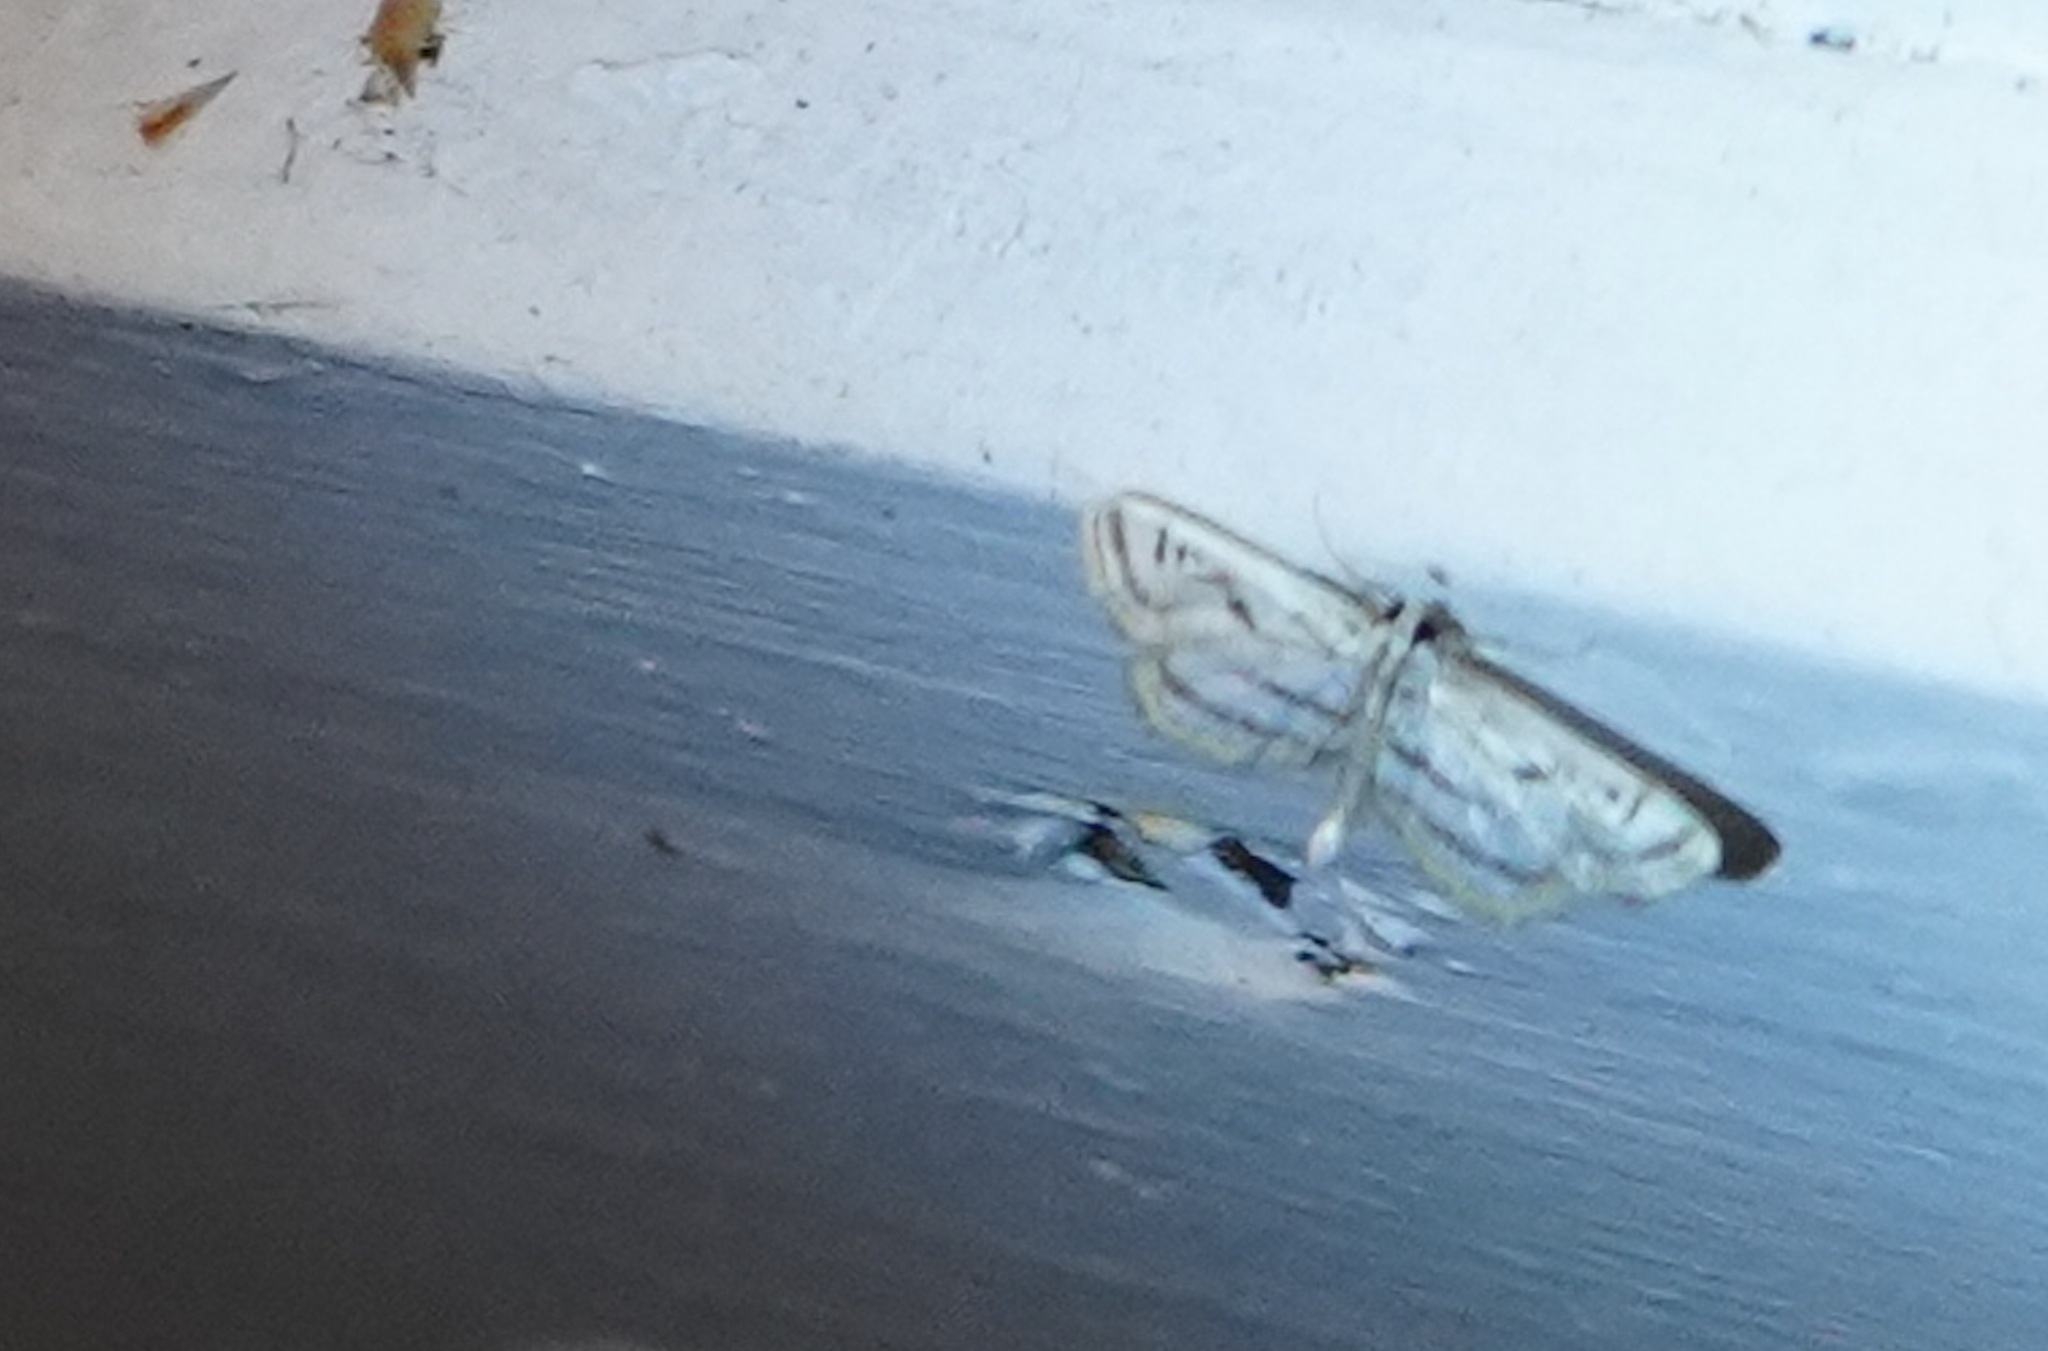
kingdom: Animalia
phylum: Arthropoda
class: Insecta
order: Lepidoptera
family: Crambidae
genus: Parapoynx
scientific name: Parapoynx badiusalis
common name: Chestnut-marked pondweed moth
